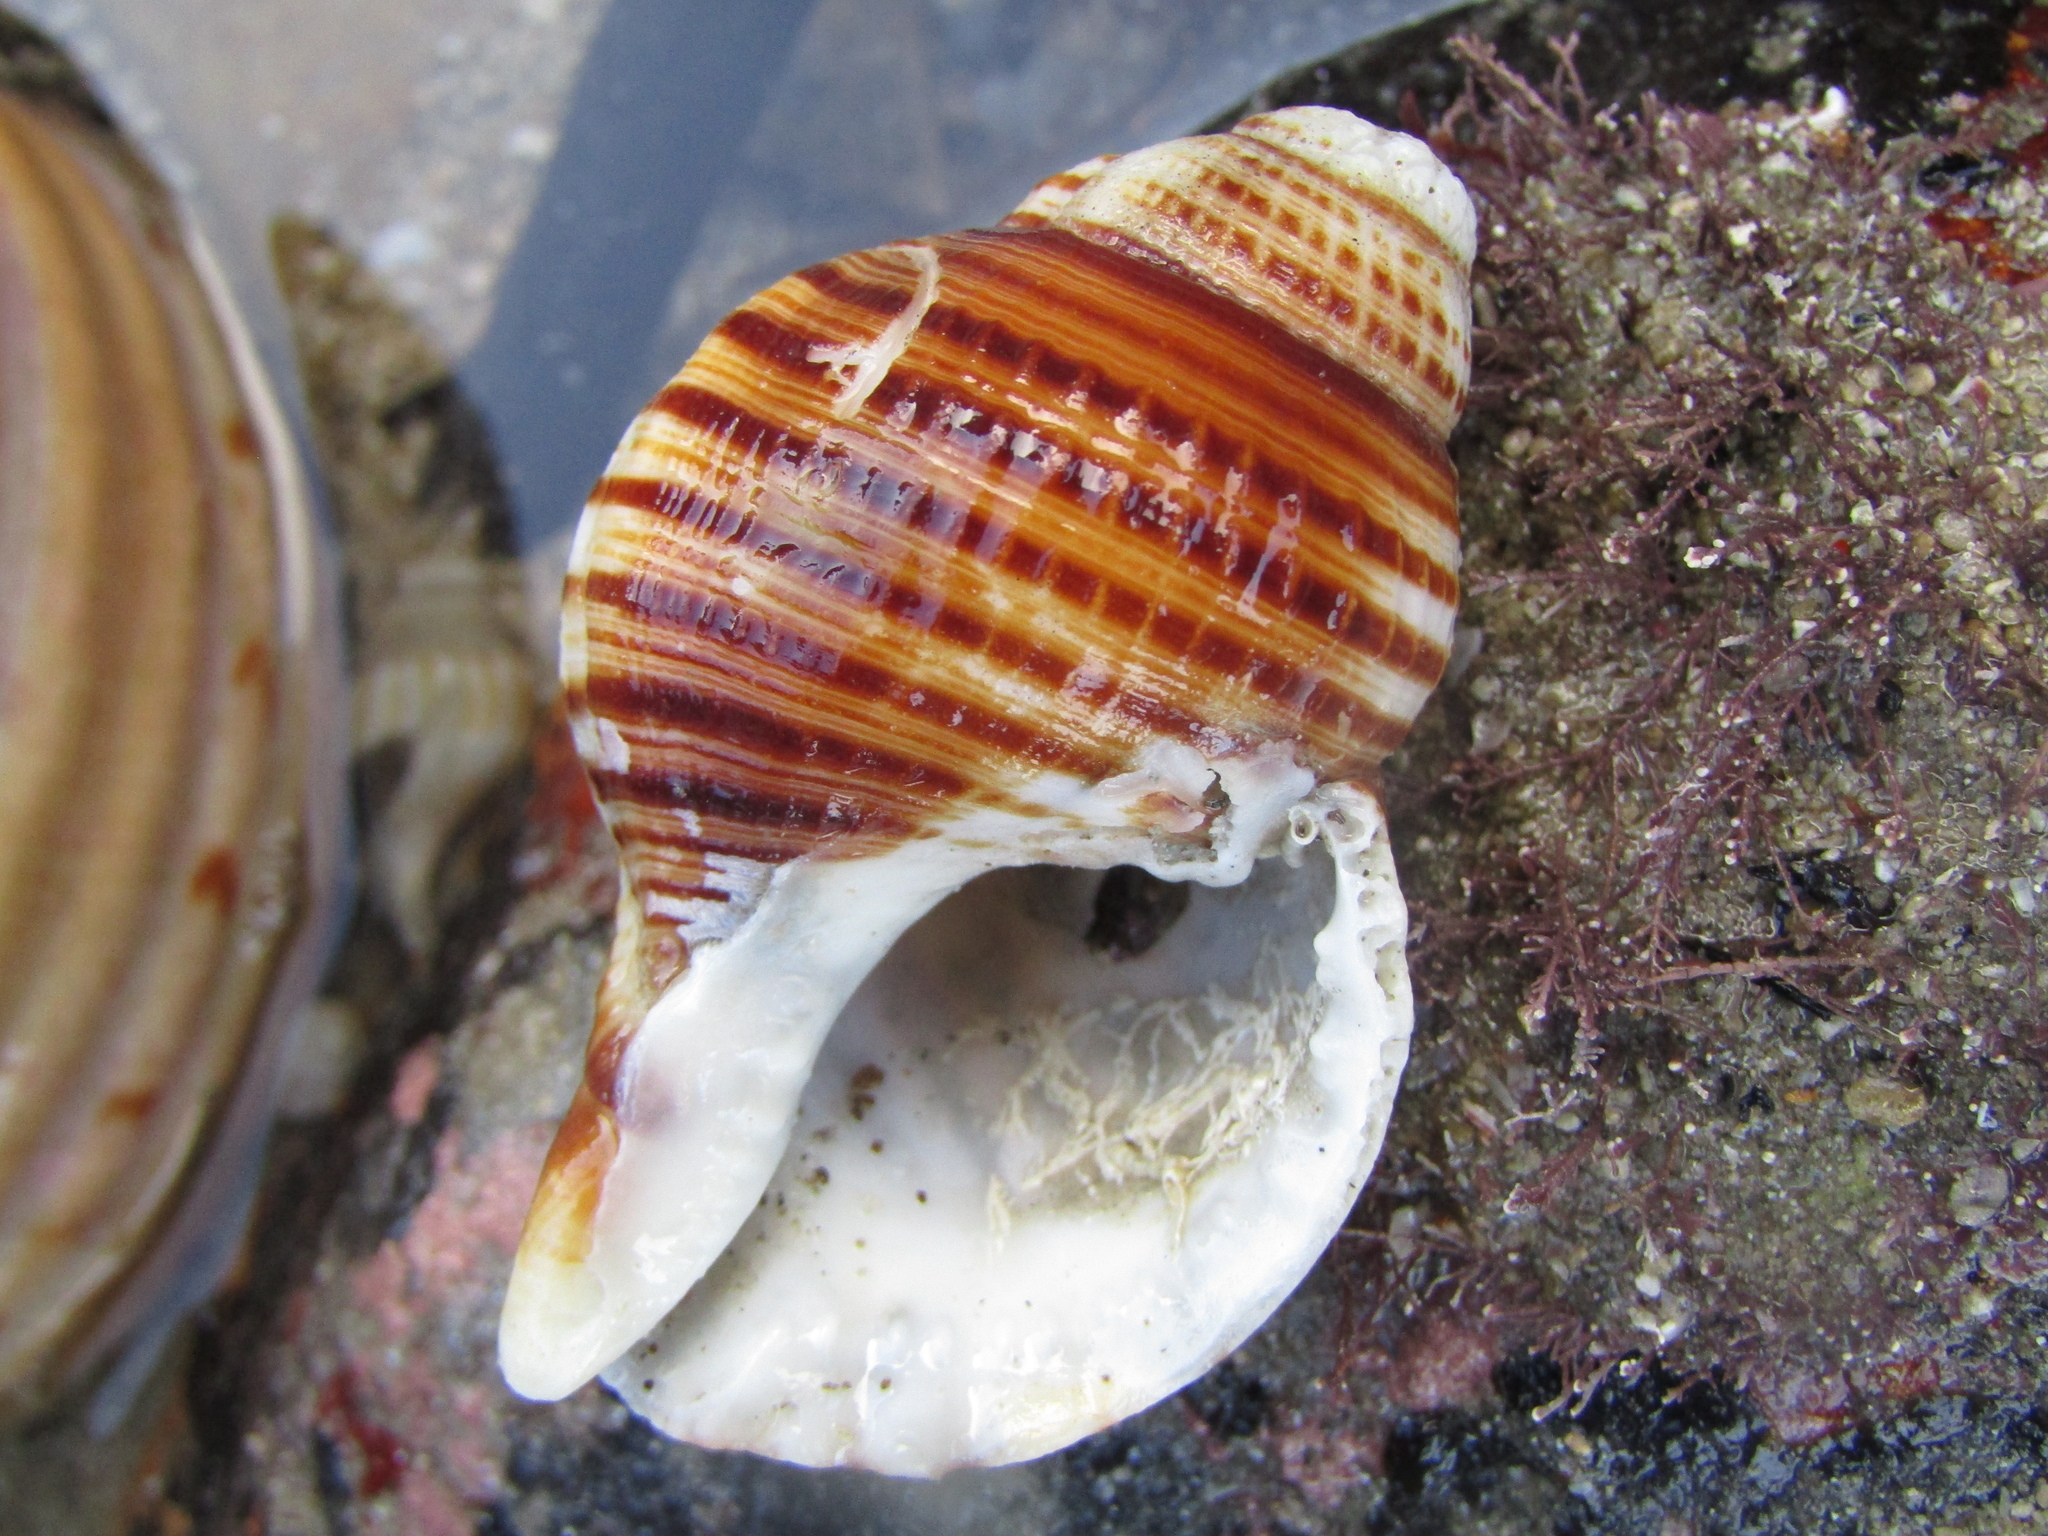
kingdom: Animalia
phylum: Mollusca
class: Gastropoda
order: Littorinimorpha
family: Cymatiidae
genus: Argobuccinum
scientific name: Argobuccinum pustulosum
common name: Pustular triton
